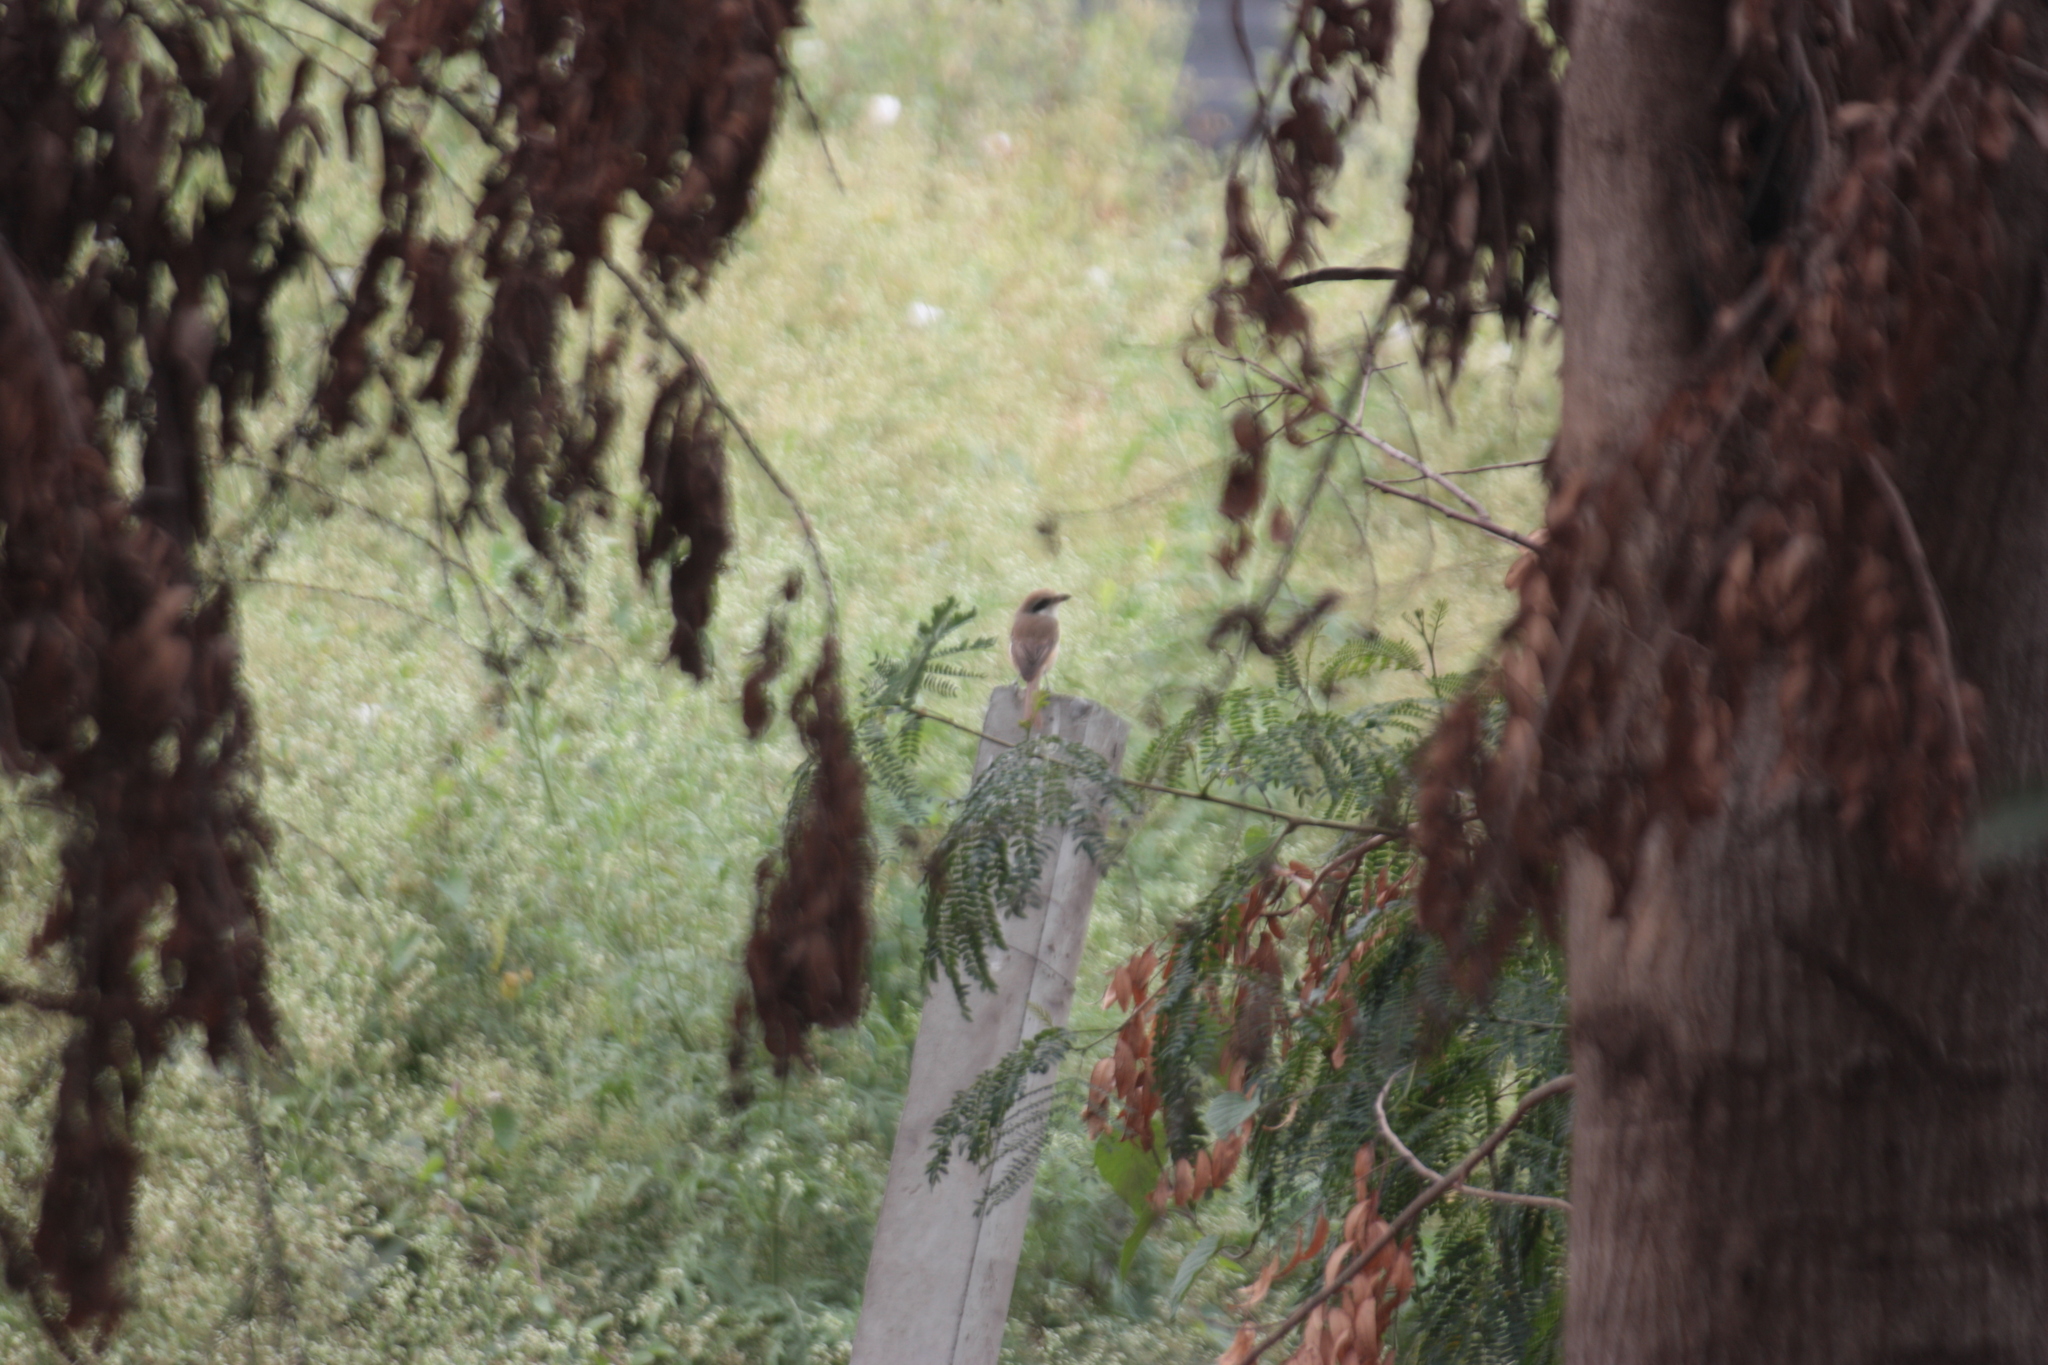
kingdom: Animalia
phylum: Chordata
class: Aves
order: Passeriformes
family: Laniidae
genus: Lanius
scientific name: Lanius cristatus
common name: Brown shrike
